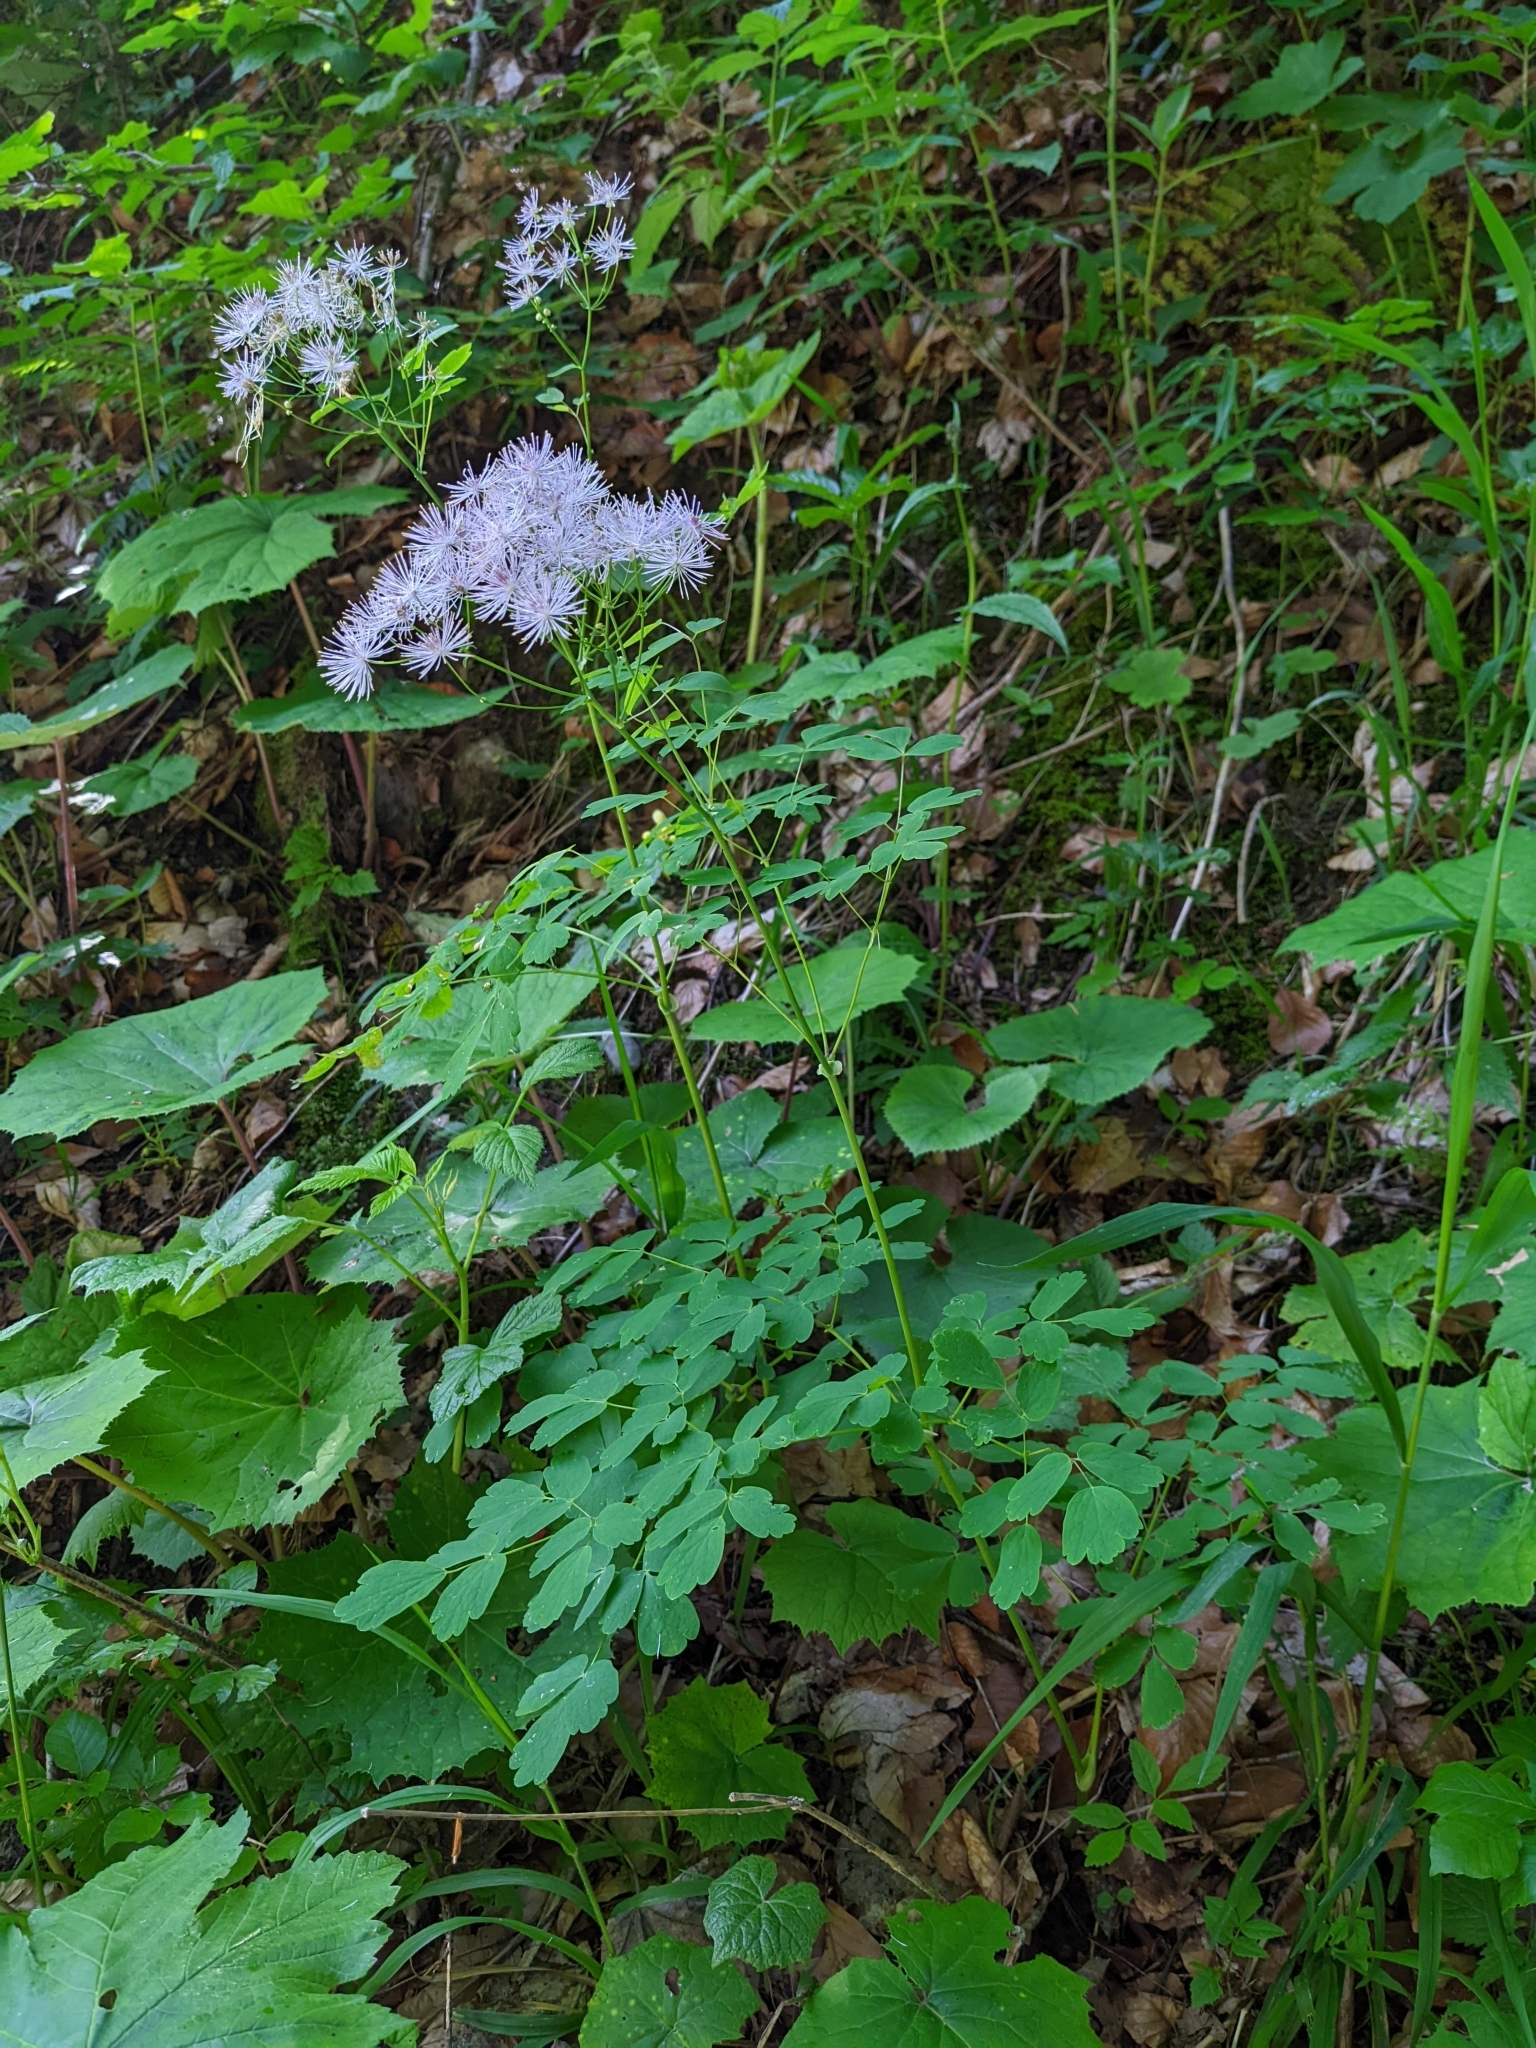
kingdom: Plantae
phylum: Tracheophyta
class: Magnoliopsida
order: Ranunculales
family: Ranunculaceae
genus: Thalictrum
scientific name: Thalictrum aquilegiifolium
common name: French meadow-rue
